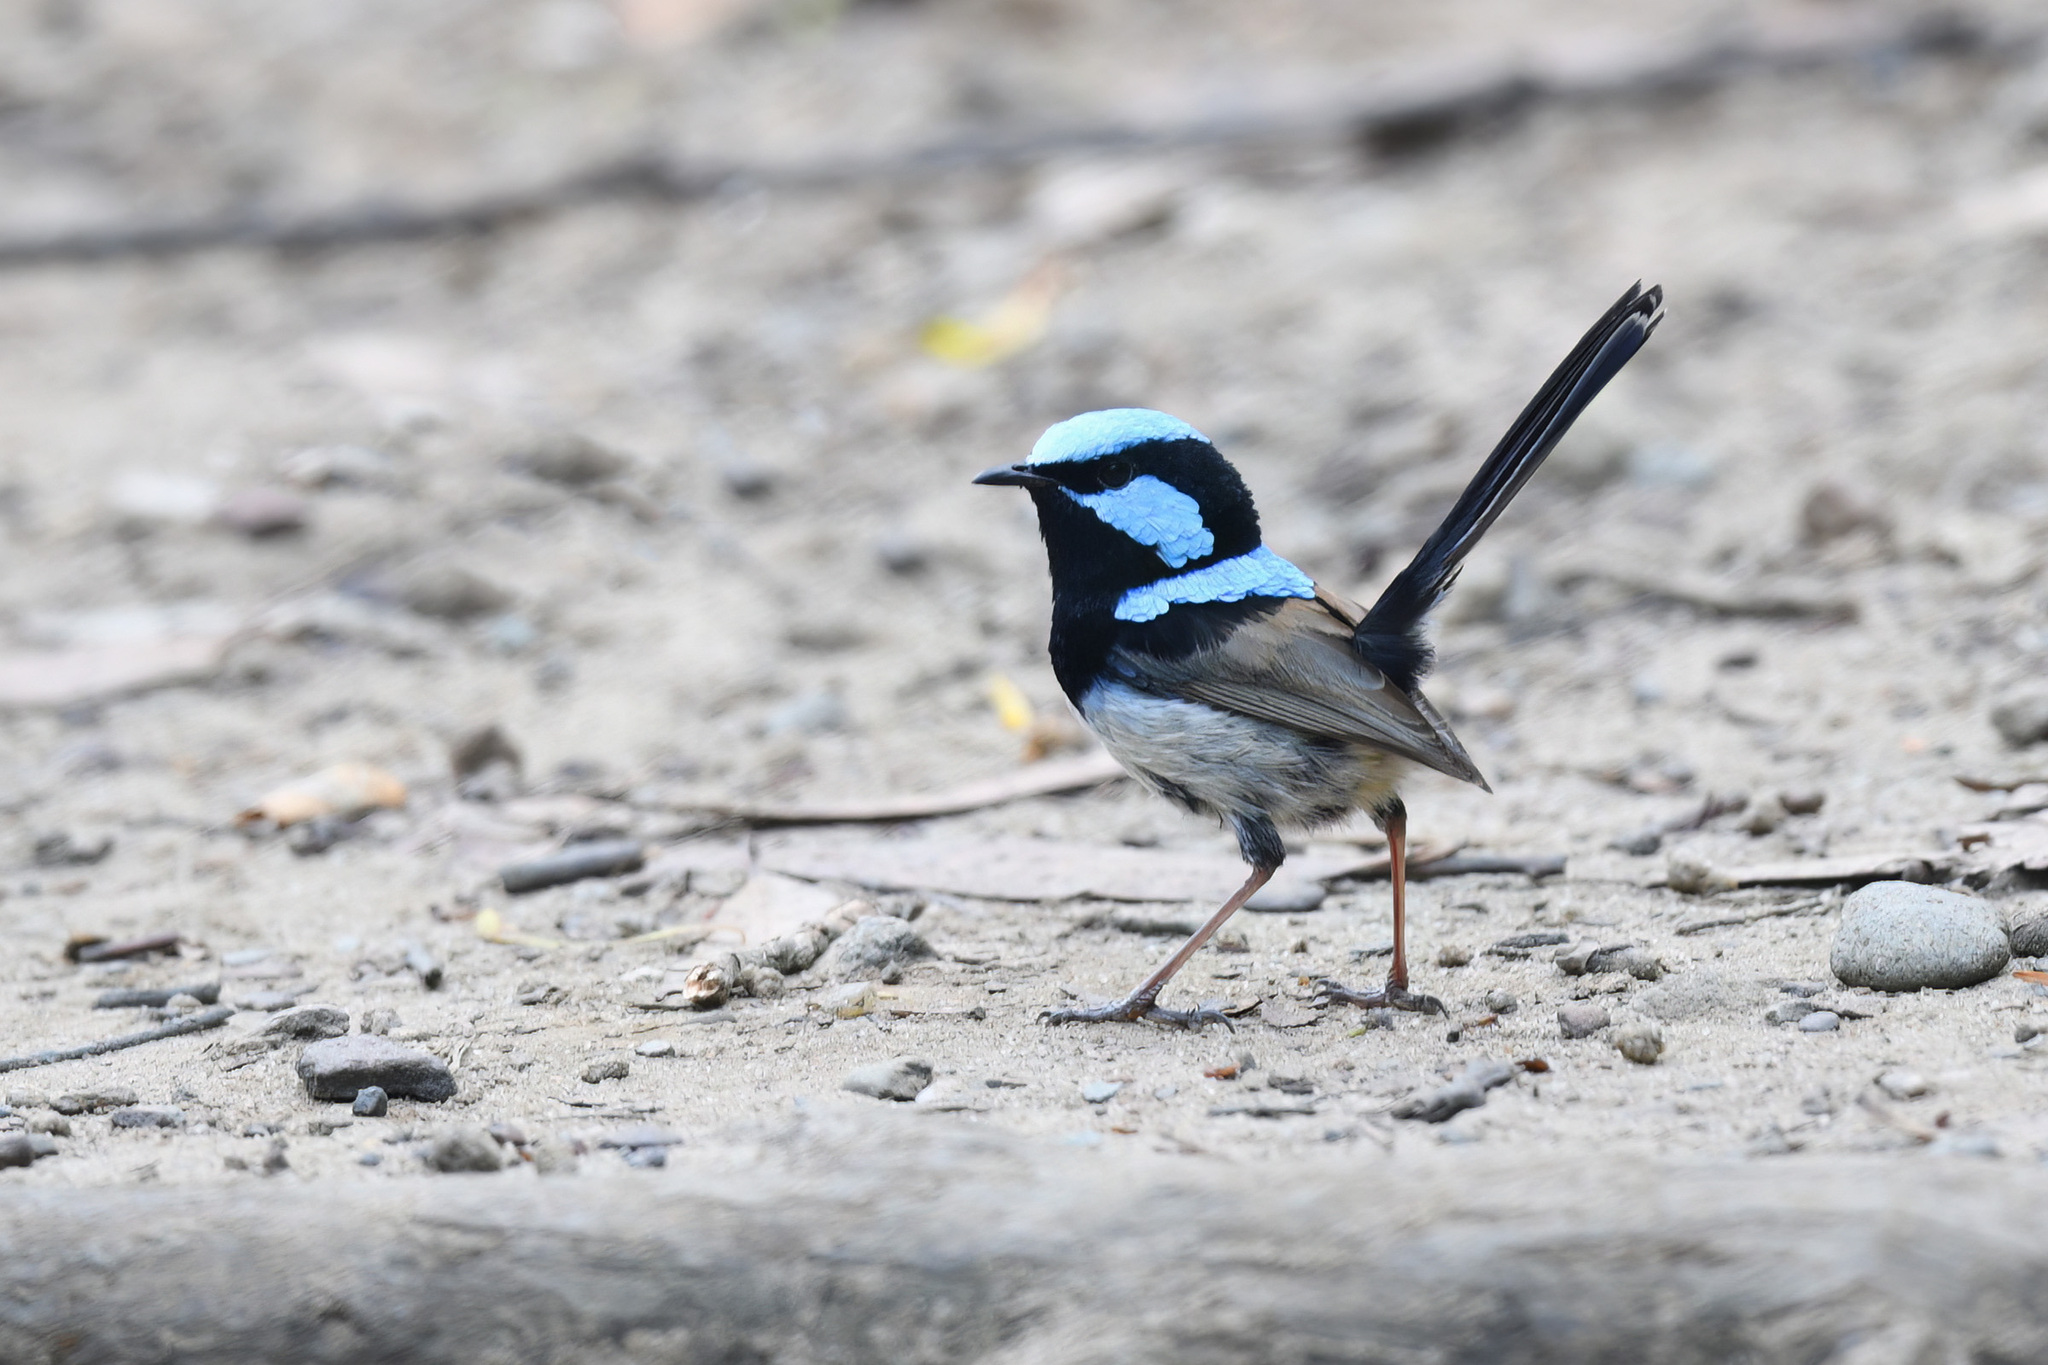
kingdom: Animalia
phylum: Chordata
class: Aves
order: Passeriformes
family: Maluridae
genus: Malurus
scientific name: Malurus cyaneus
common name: Superb fairywren
